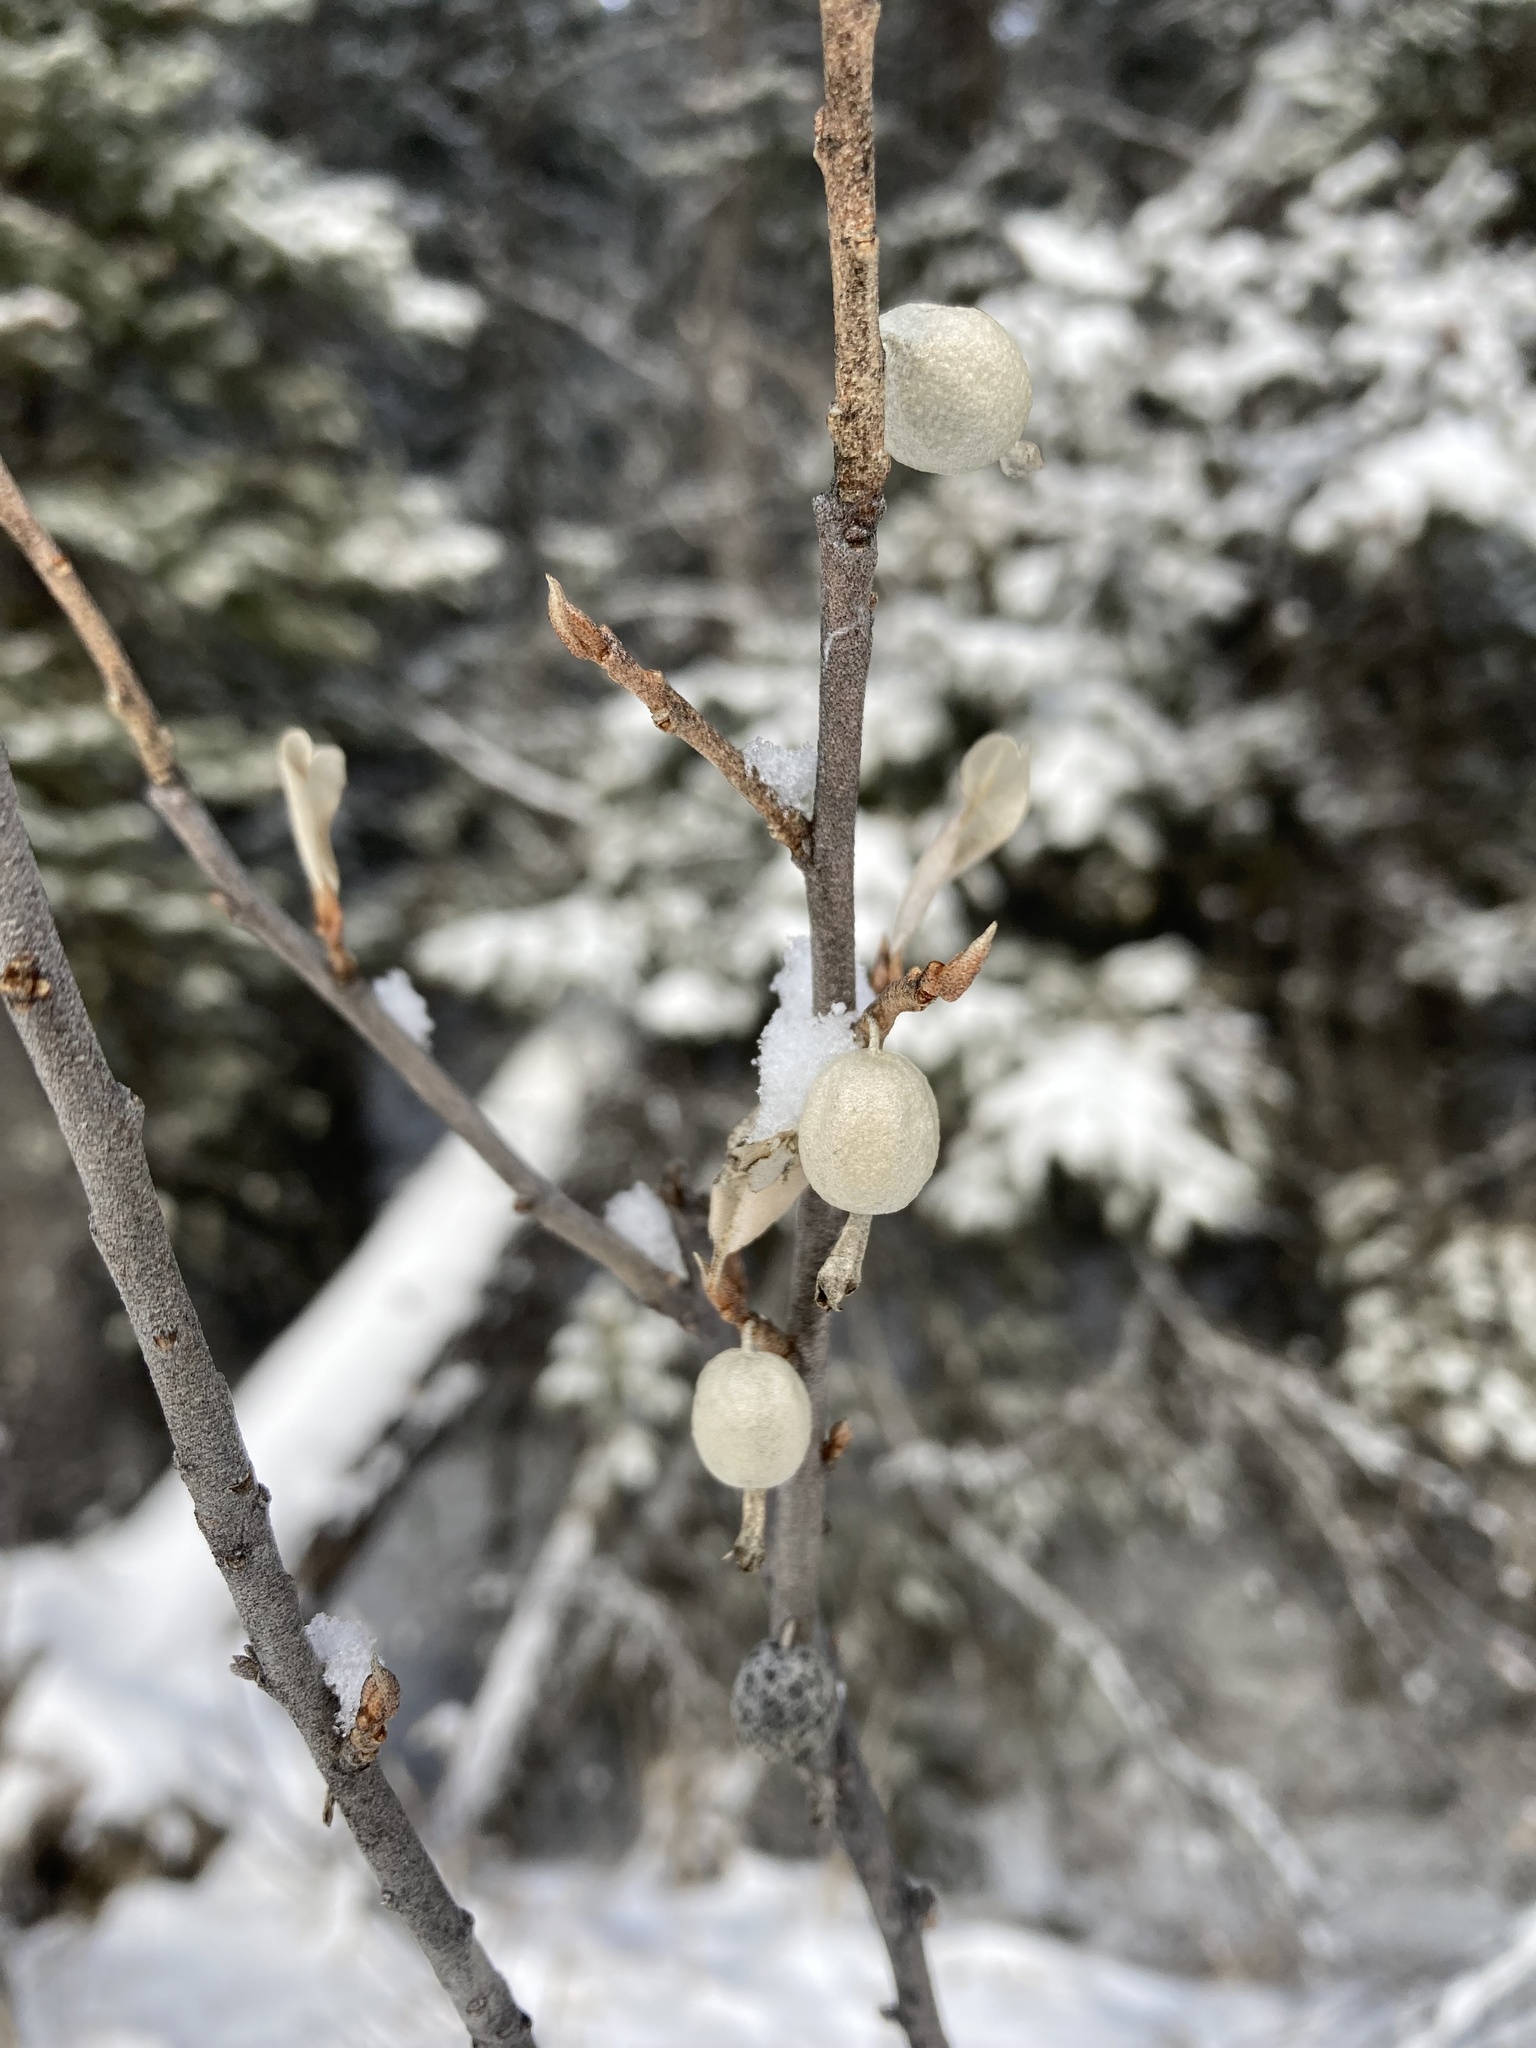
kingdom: Plantae
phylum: Tracheophyta
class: Magnoliopsida
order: Rosales
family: Elaeagnaceae
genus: Elaeagnus
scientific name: Elaeagnus commutata
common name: Silverberry
